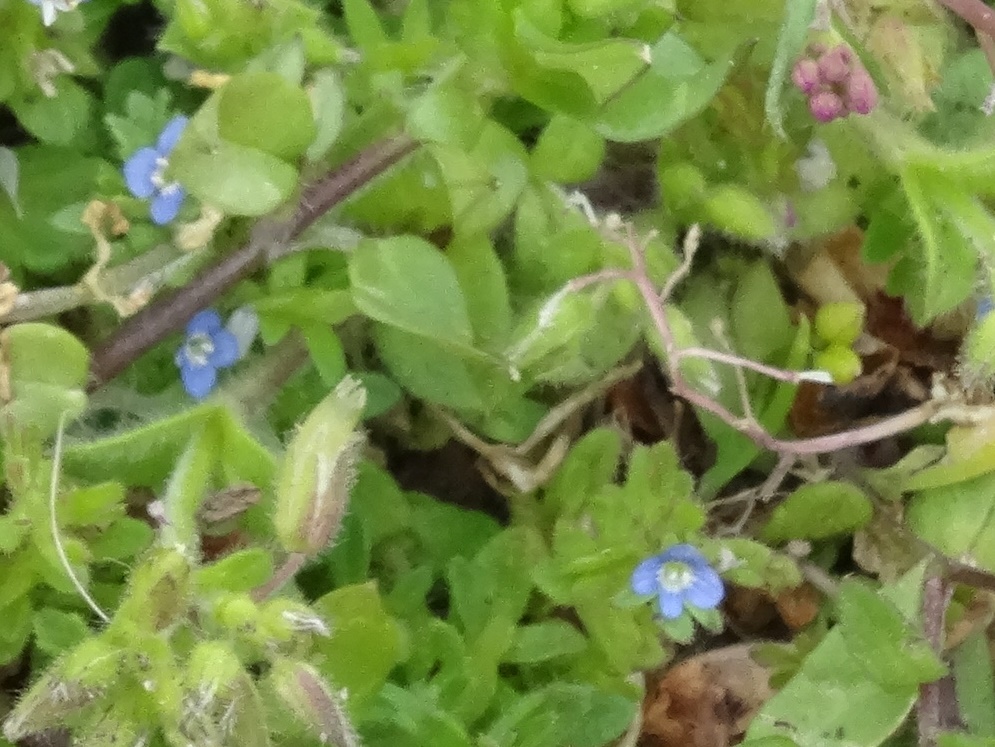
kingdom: Plantae
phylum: Tracheophyta
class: Magnoliopsida
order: Lamiales
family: Plantaginaceae
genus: Veronica
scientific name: Veronica arvensis
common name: Corn speedwell
